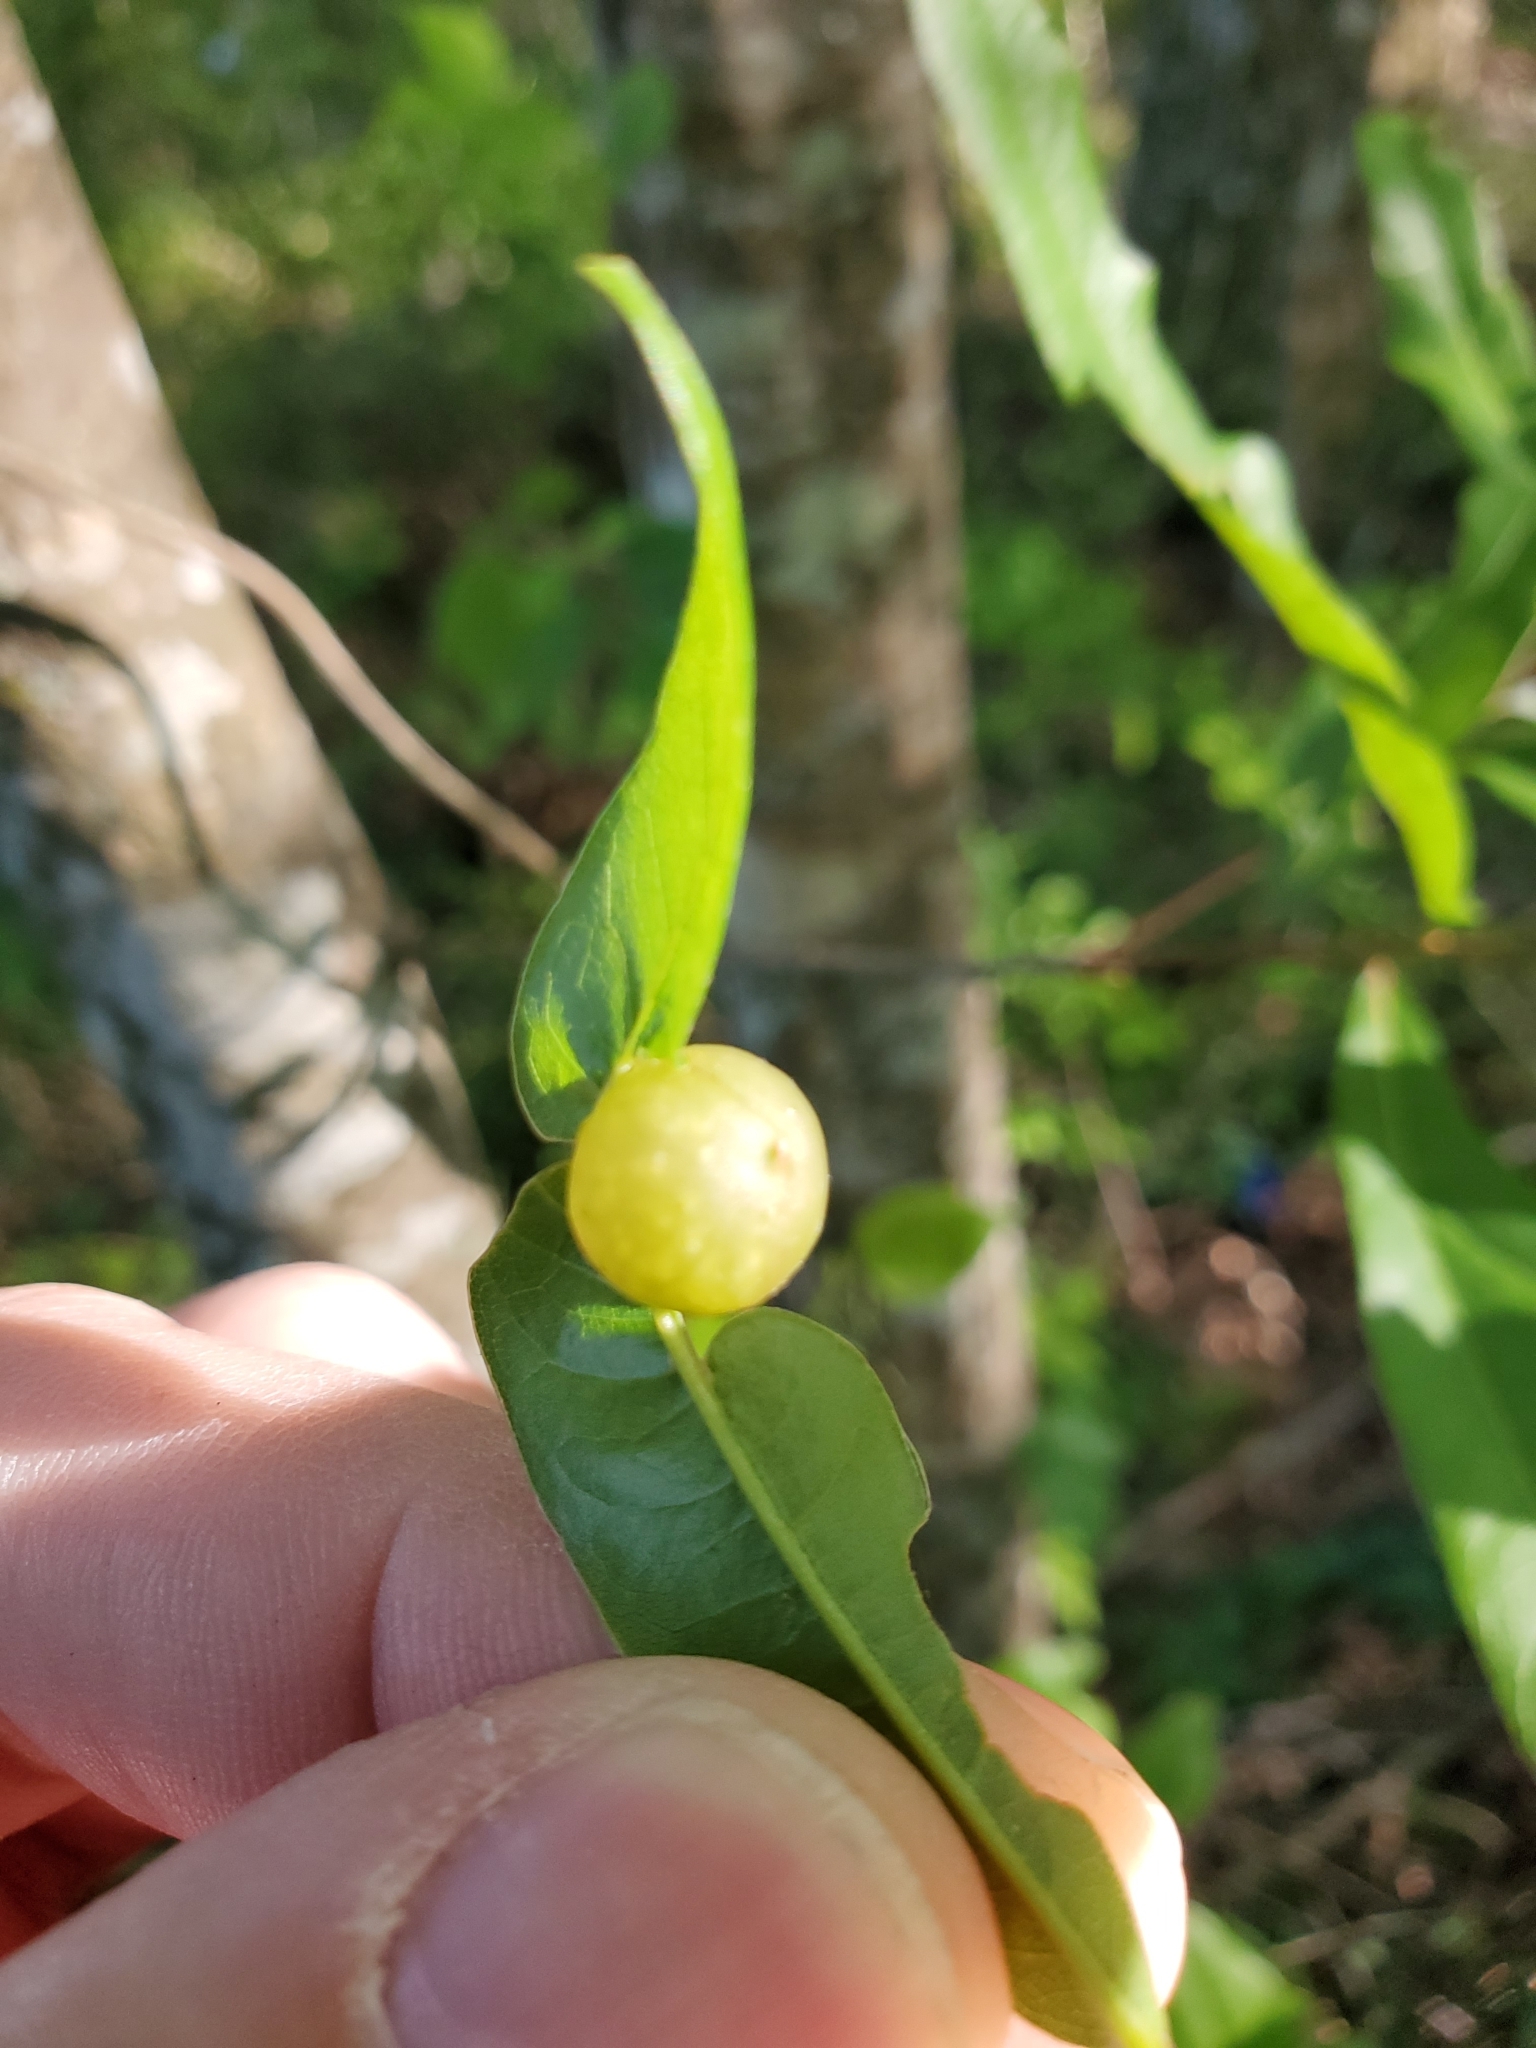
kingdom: Animalia
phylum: Arthropoda
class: Insecta
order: Hymenoptera
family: Cynipidae
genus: Dryocosmus
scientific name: Dryocosmus quercuspalustris
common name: Succulent oak gall wasp
